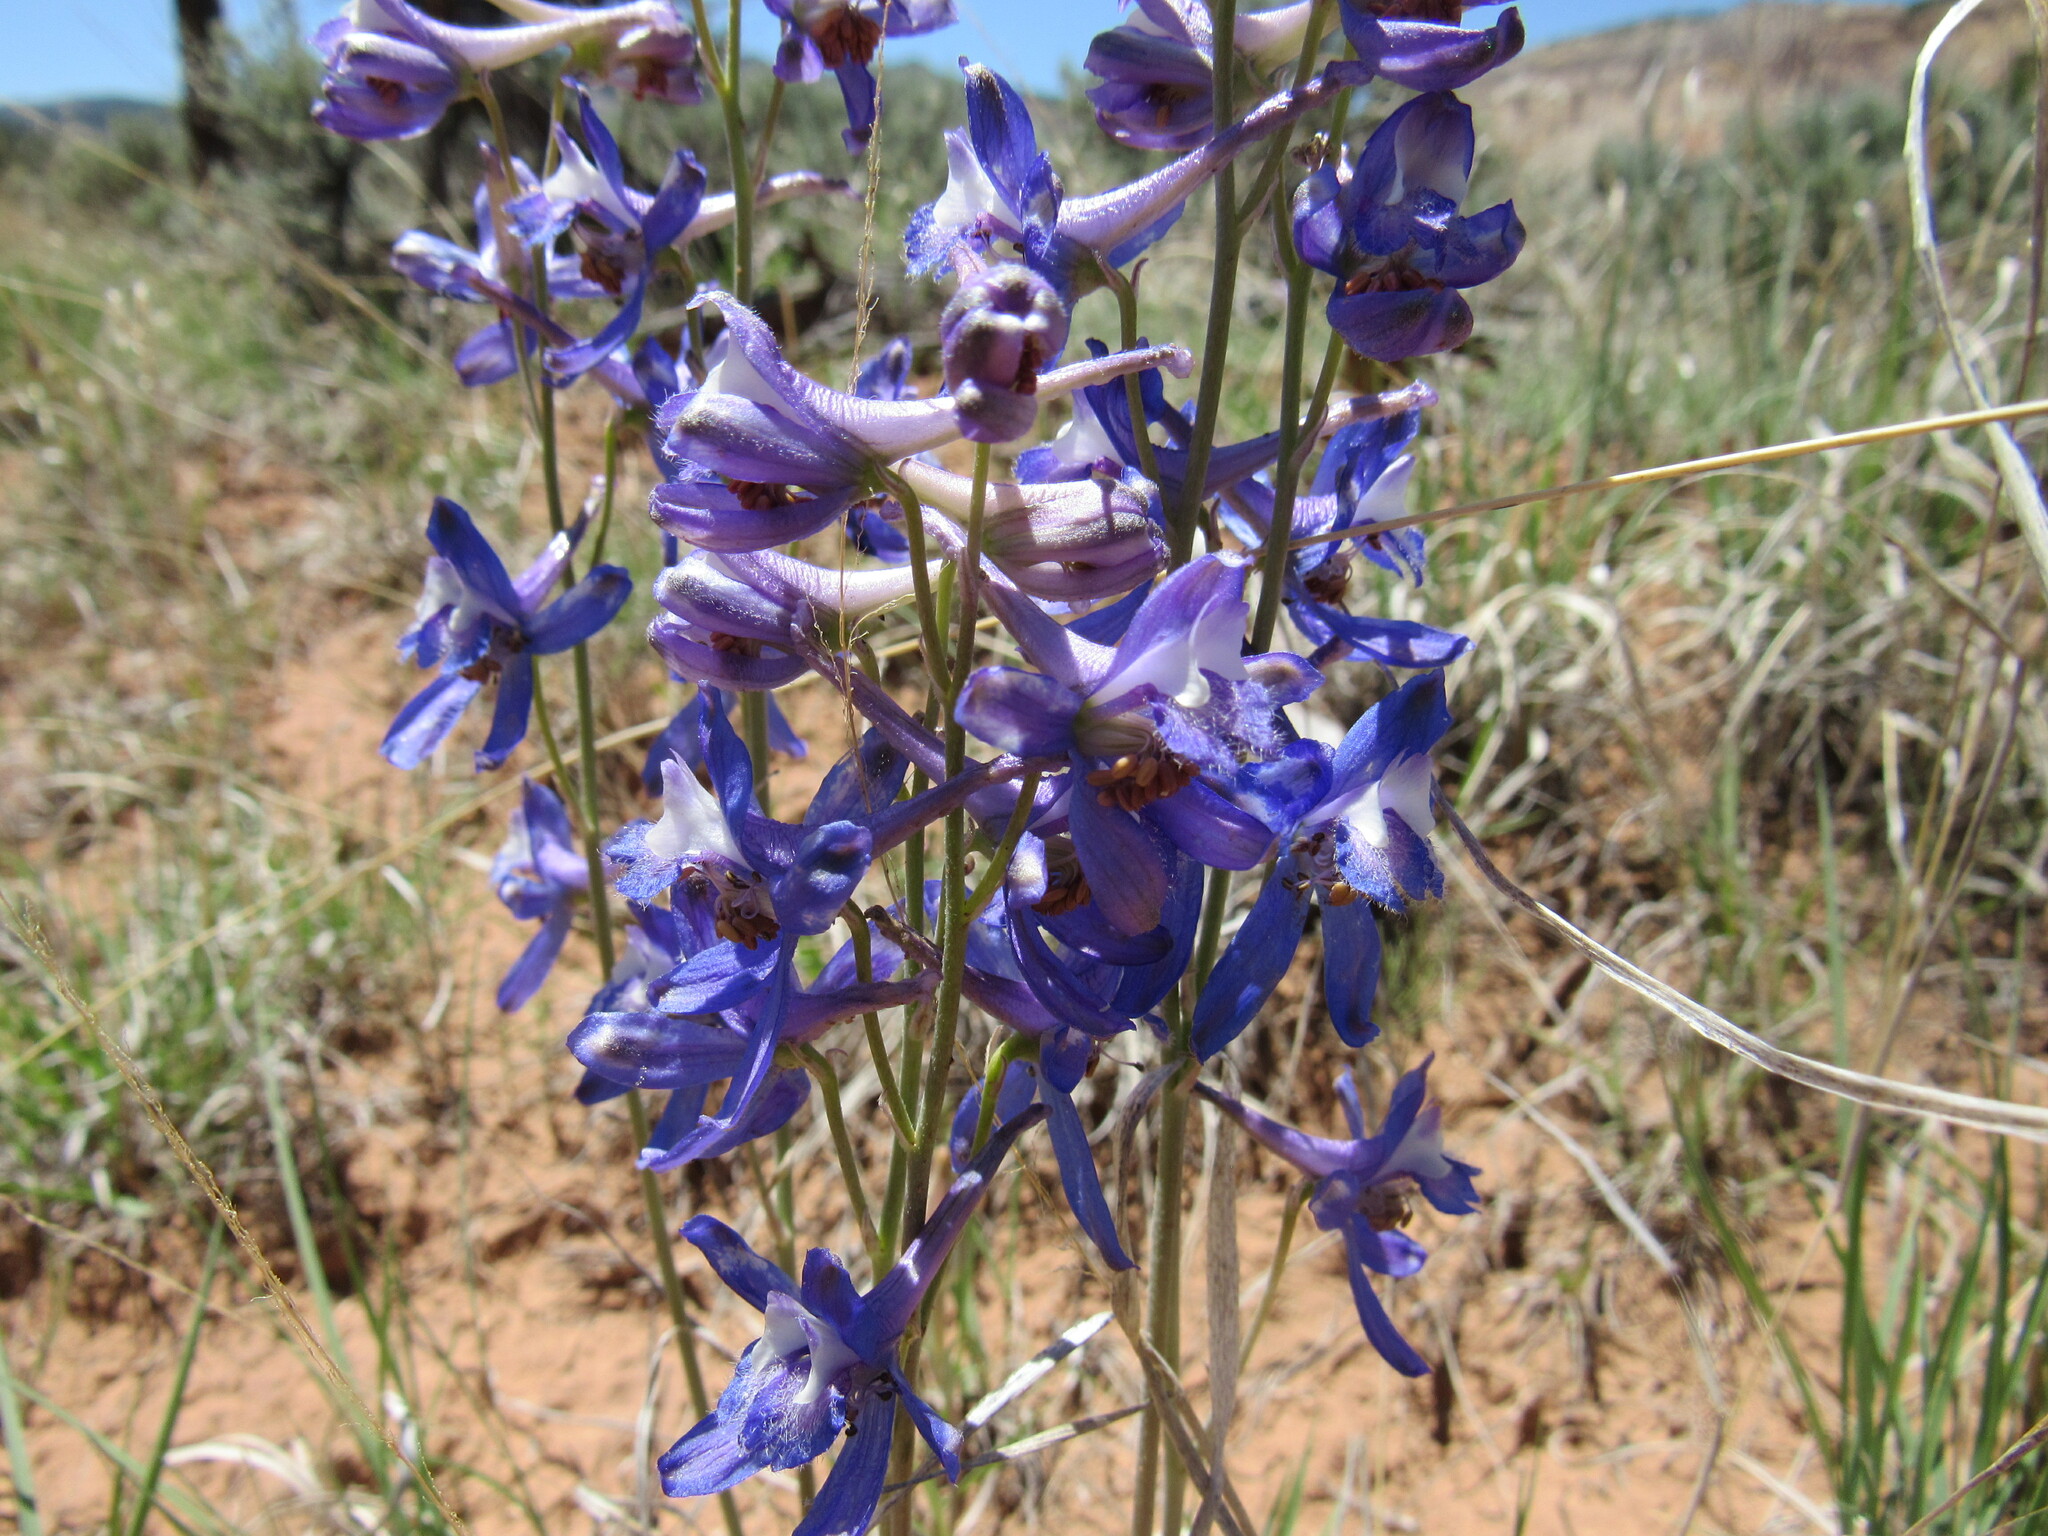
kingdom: Plantae
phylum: Tracheophyta
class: Magnoliopsida
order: Ranunculales
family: Ranunculaceae
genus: Delphinium
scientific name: Delphinium scaposum
